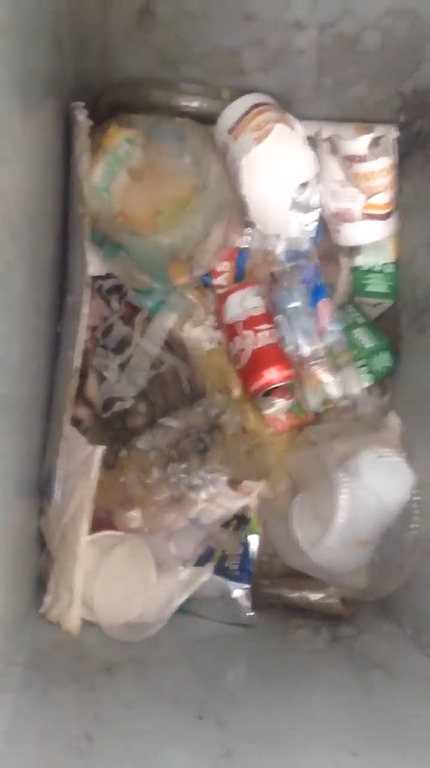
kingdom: Animalia
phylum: Chordata
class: Mammalia
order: Didelphimorphia
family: Didelphidae
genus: Didelphis
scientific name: Didelphis virginiana
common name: Virginia opossum
